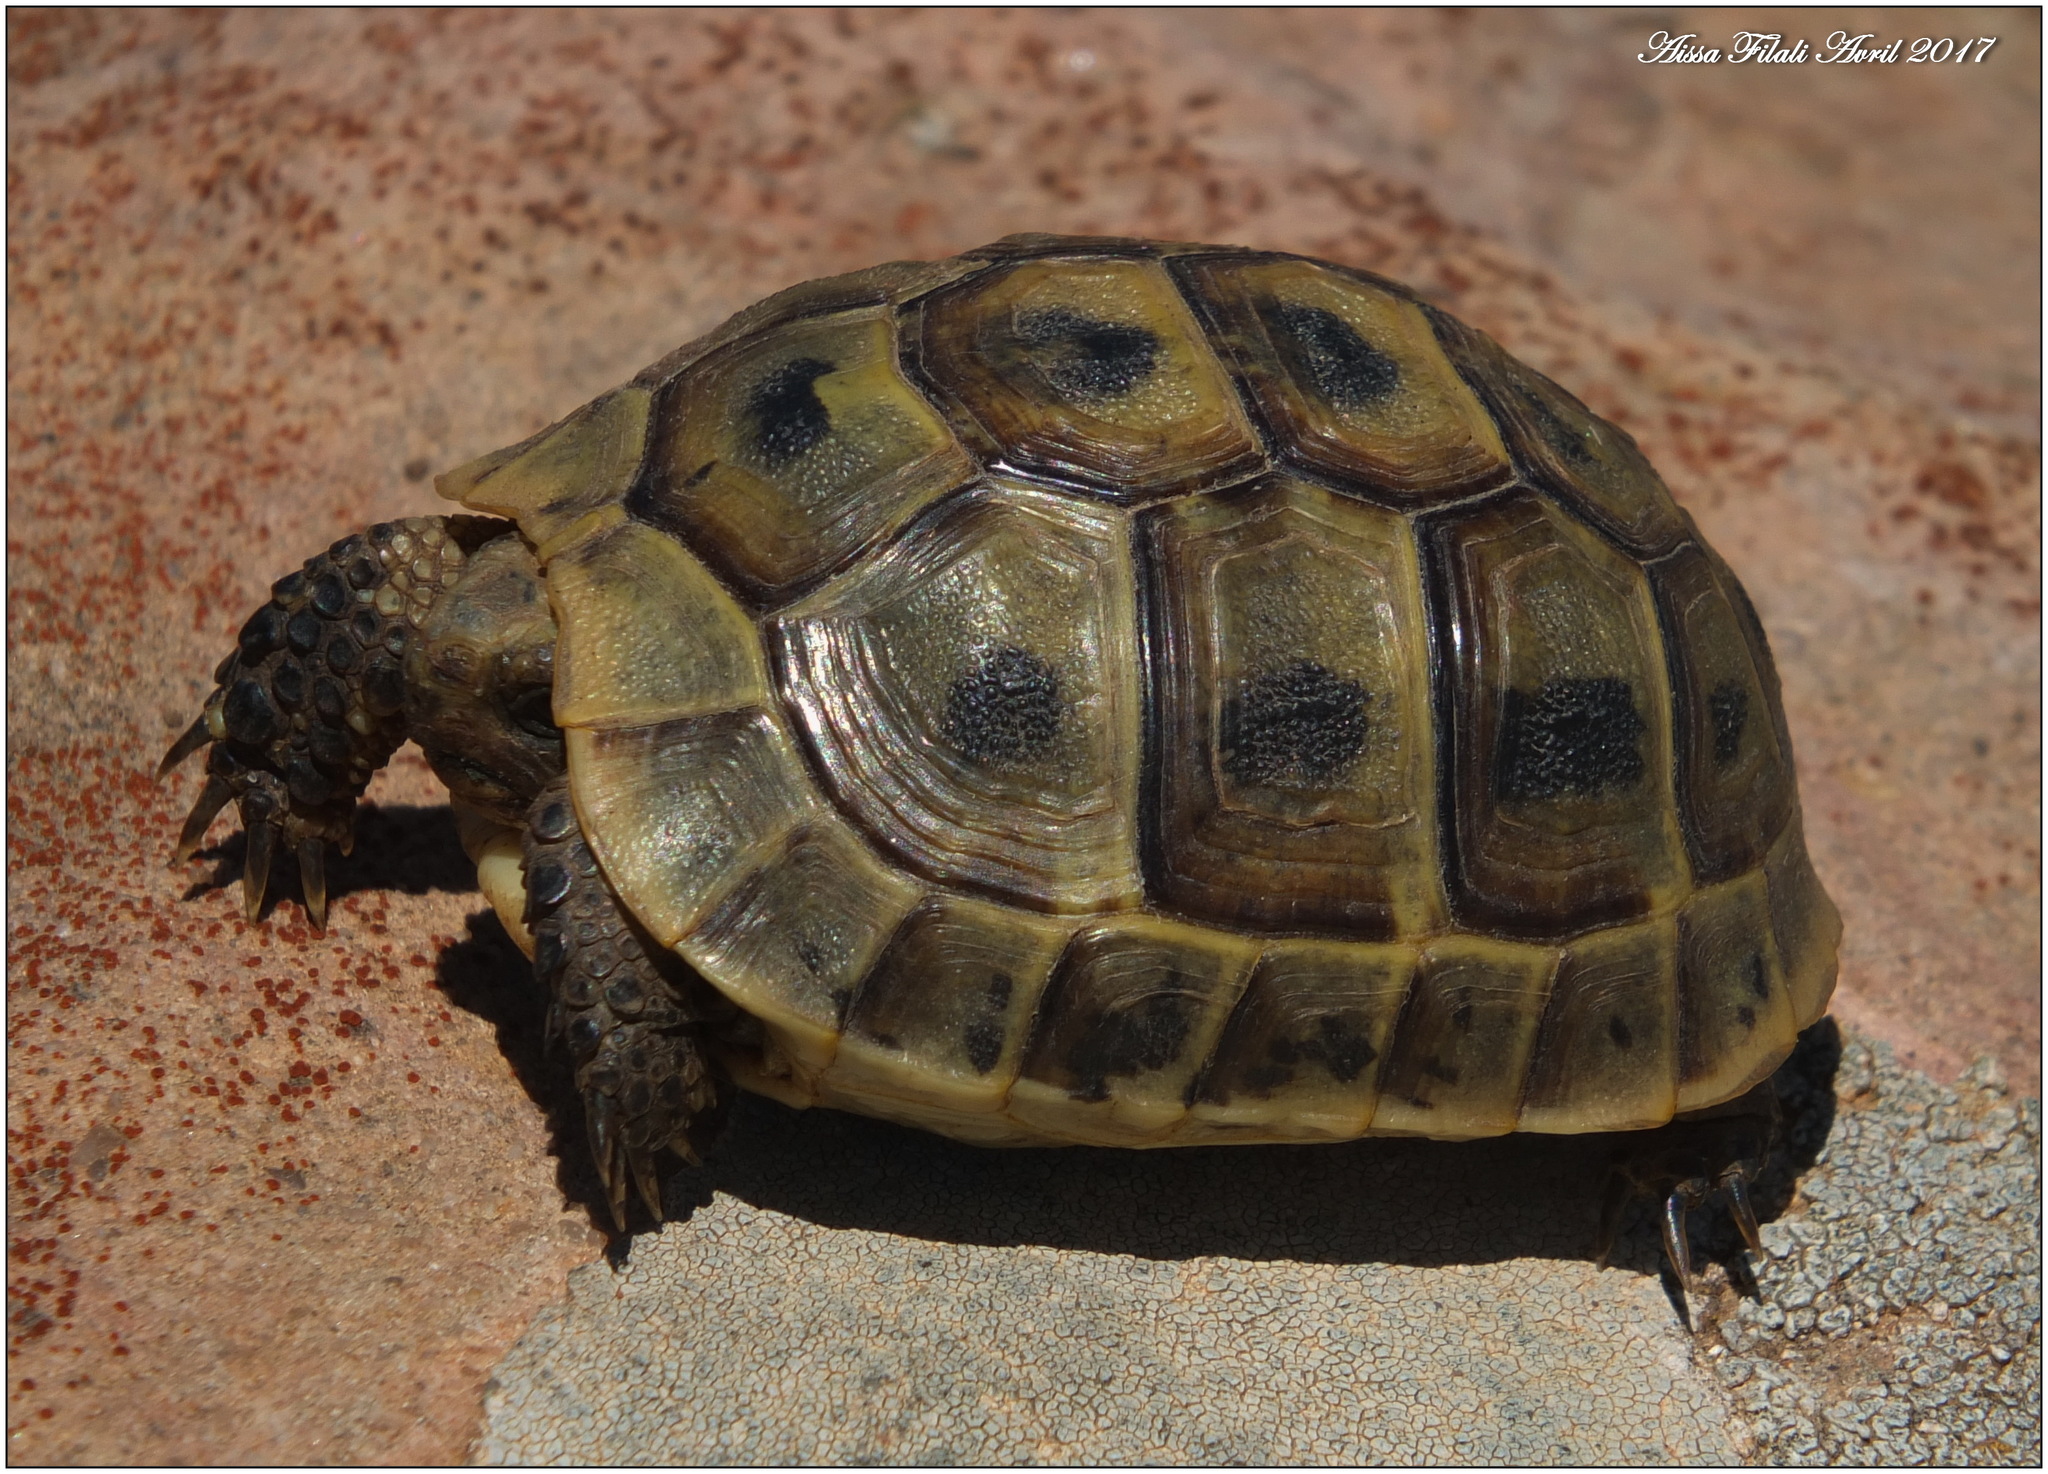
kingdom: Animalia
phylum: Chordata
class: Testudines
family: Testudinidae
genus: Testudo
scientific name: Testudo graeca
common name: Common tortoise
